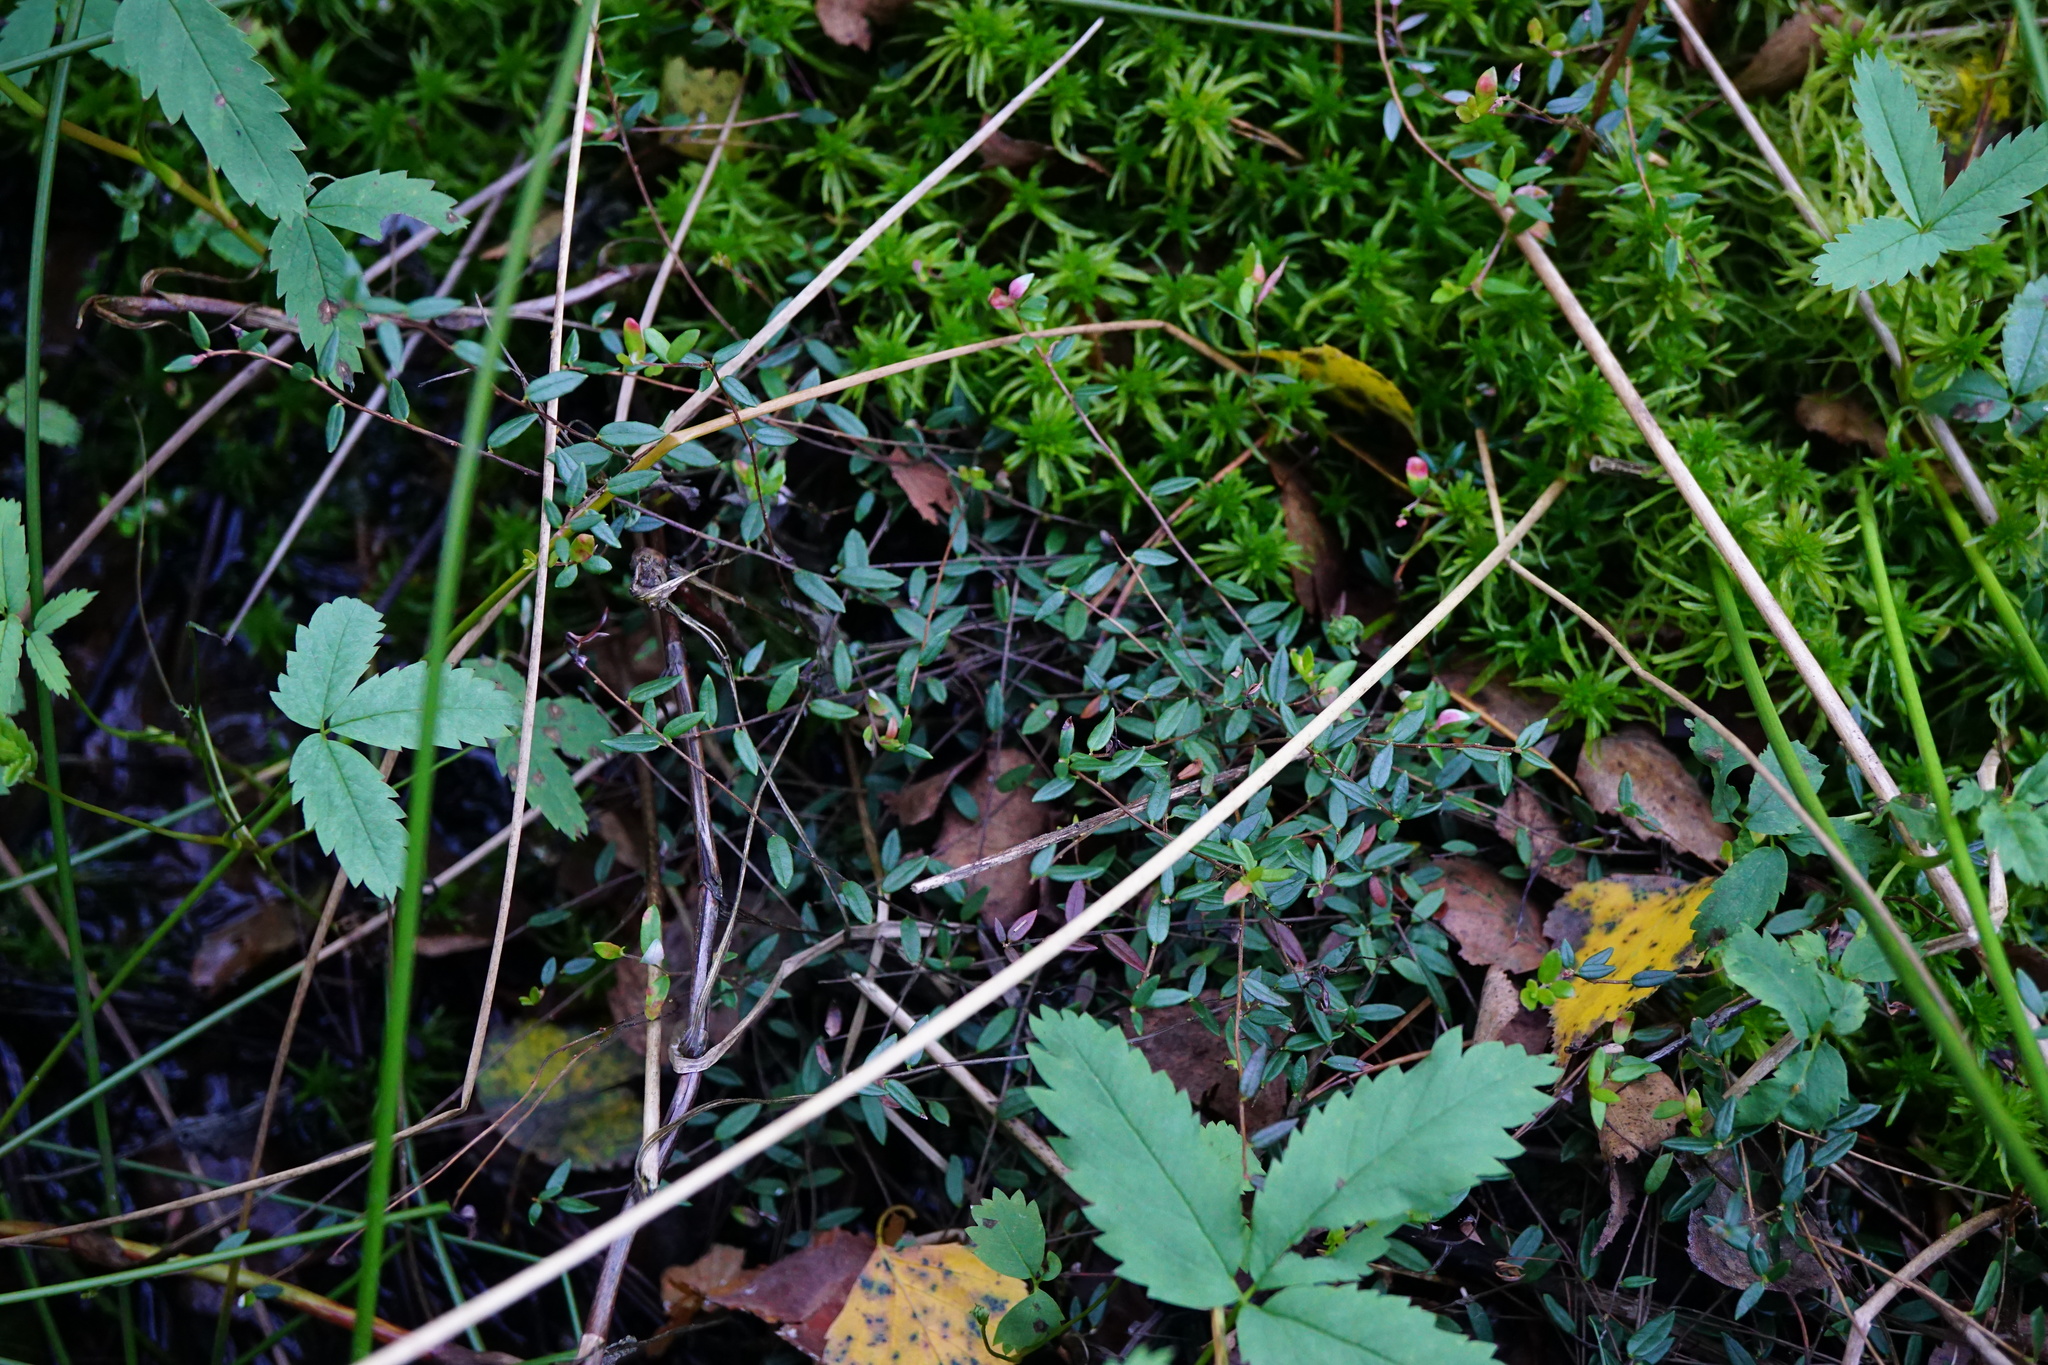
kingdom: Plantae
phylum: Tracheophyta
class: Magnoliopsida
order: Ericales
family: Ericaceae
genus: Vaccinium
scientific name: Vaccinium oxycoccos
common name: Cranberry
